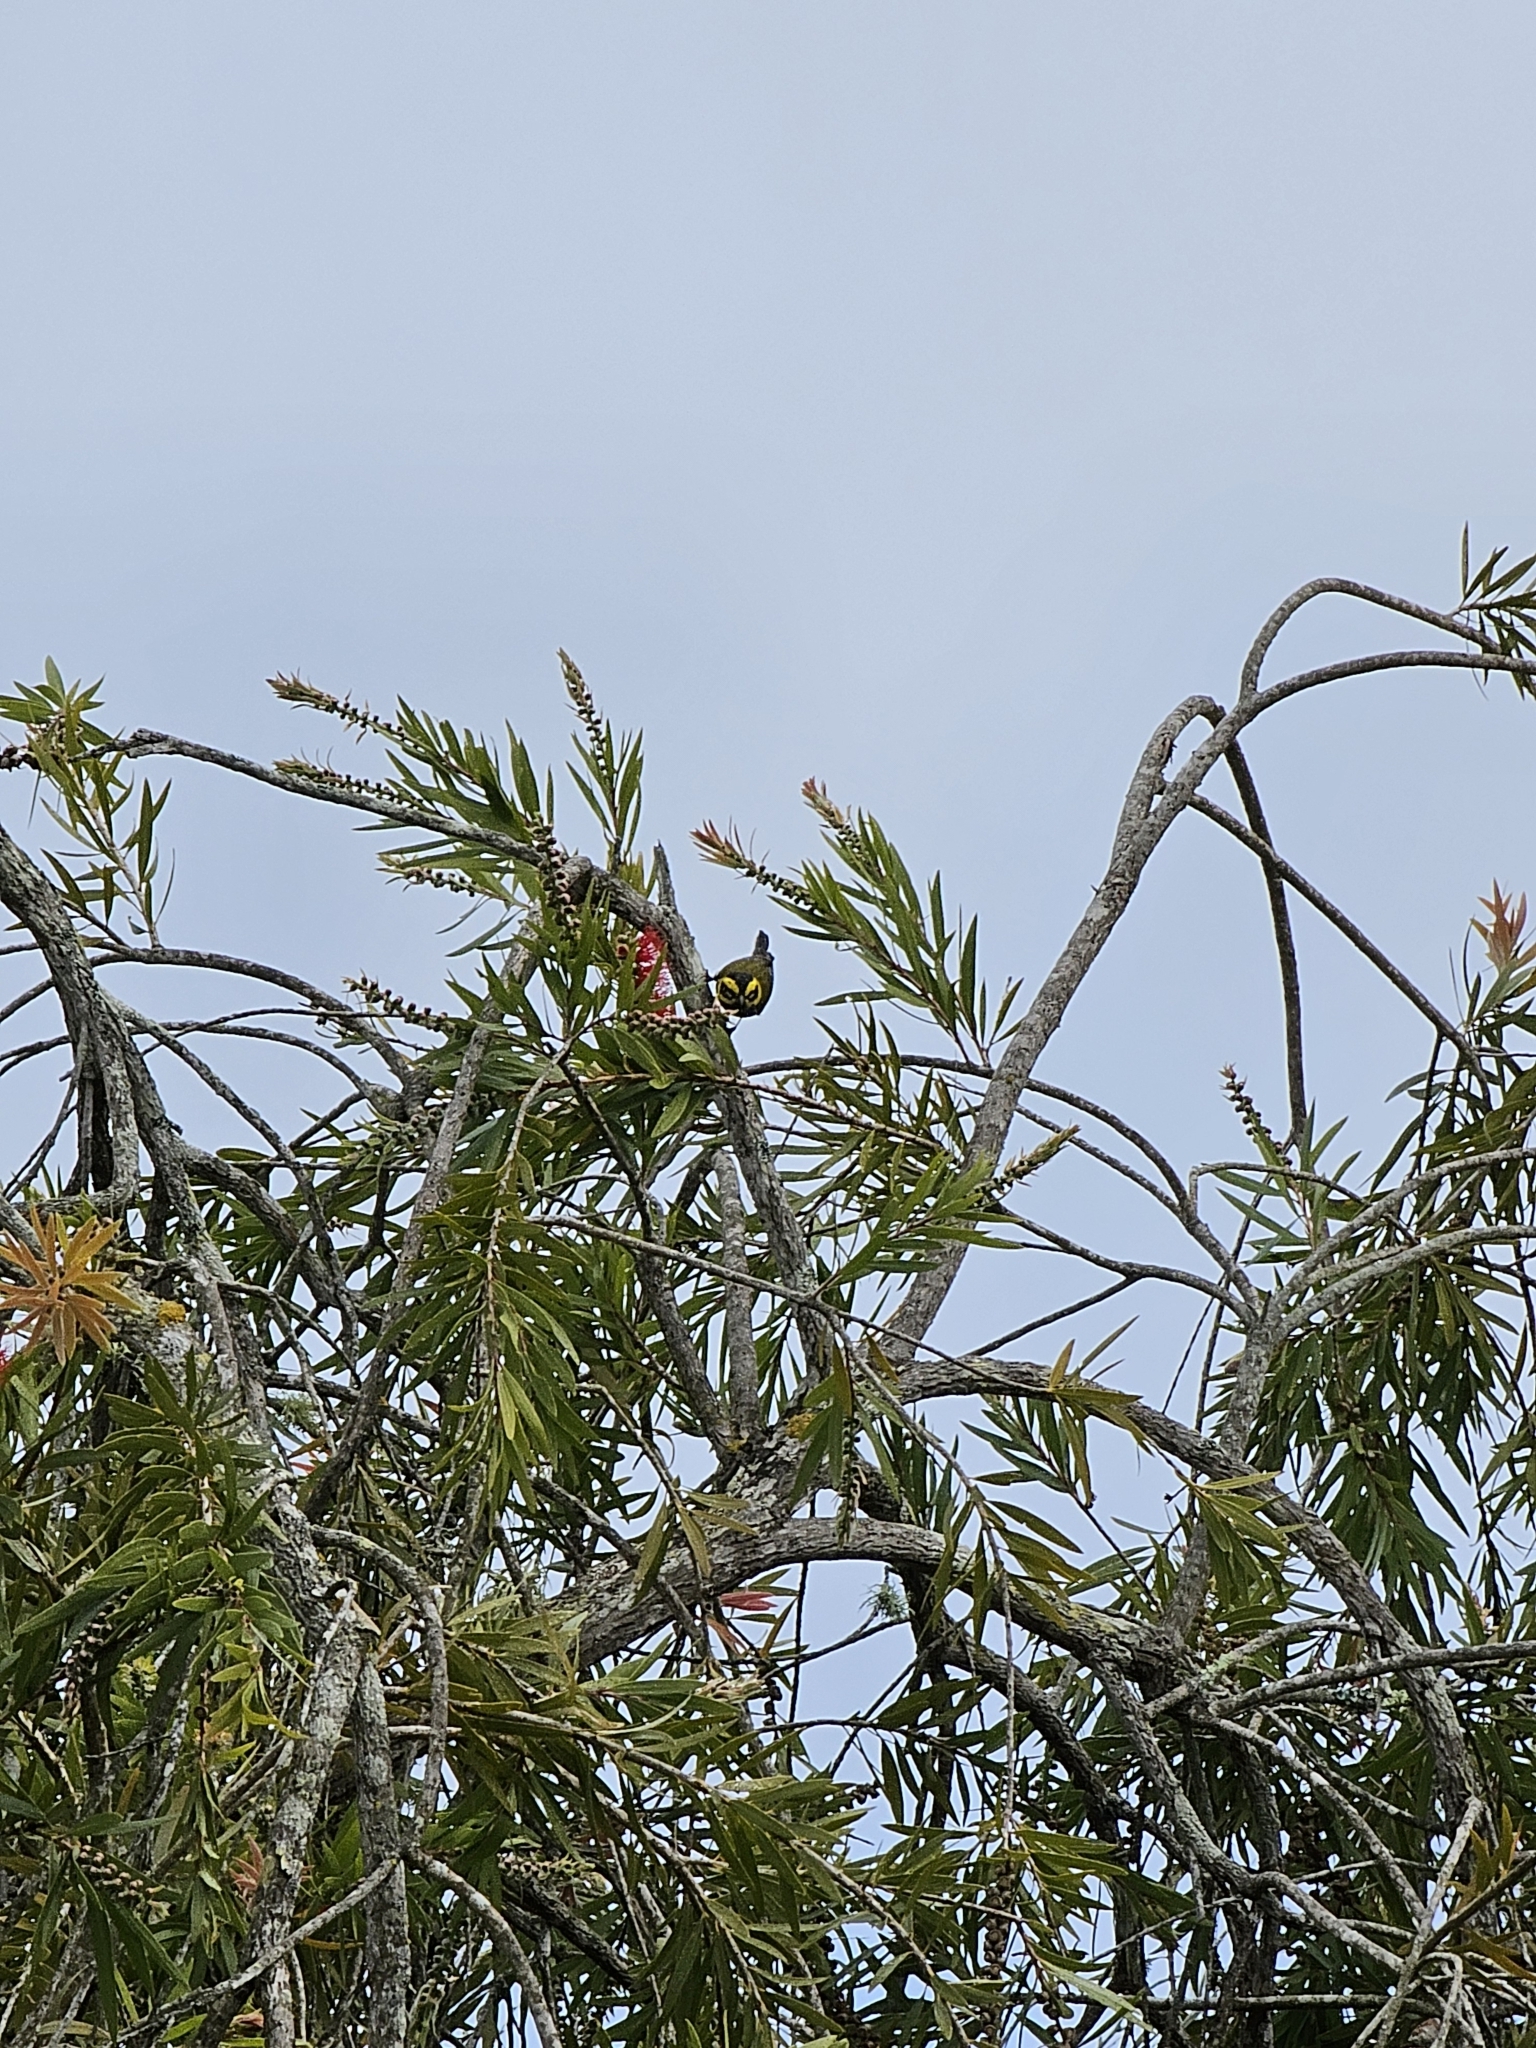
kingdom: Animalia
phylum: Chordata
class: Aves
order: Passeriformes
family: Parulidae
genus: Setophaga
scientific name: Setophaga townsendi
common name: Townsend's warbler
